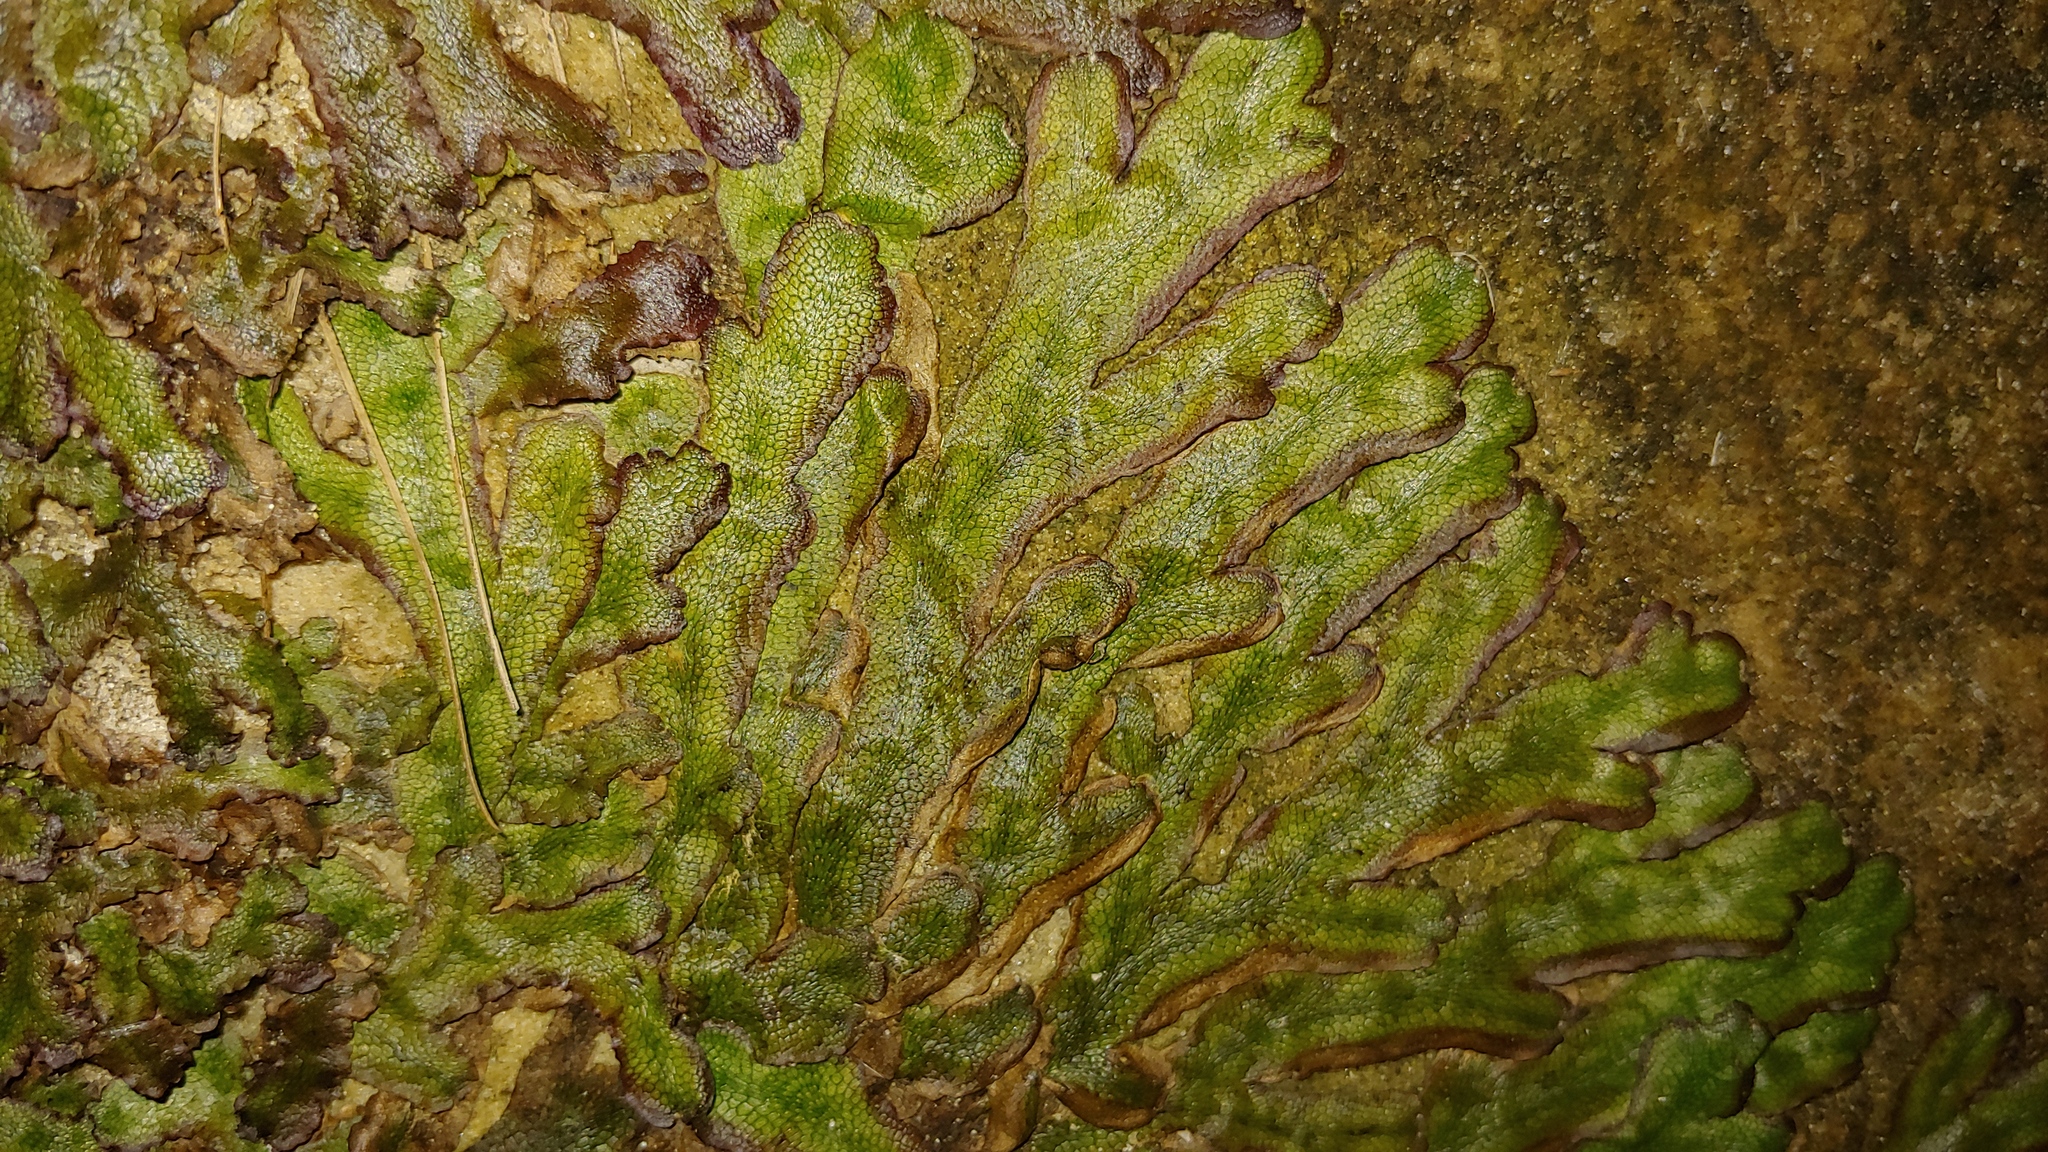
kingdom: Plantae
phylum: Marchantiophyta
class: Marchantiopsida
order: Marchantiales
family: Conocephalaceae
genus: Conocephalum
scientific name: Conocephalum salebrosum
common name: Cat-tongue liverwort
